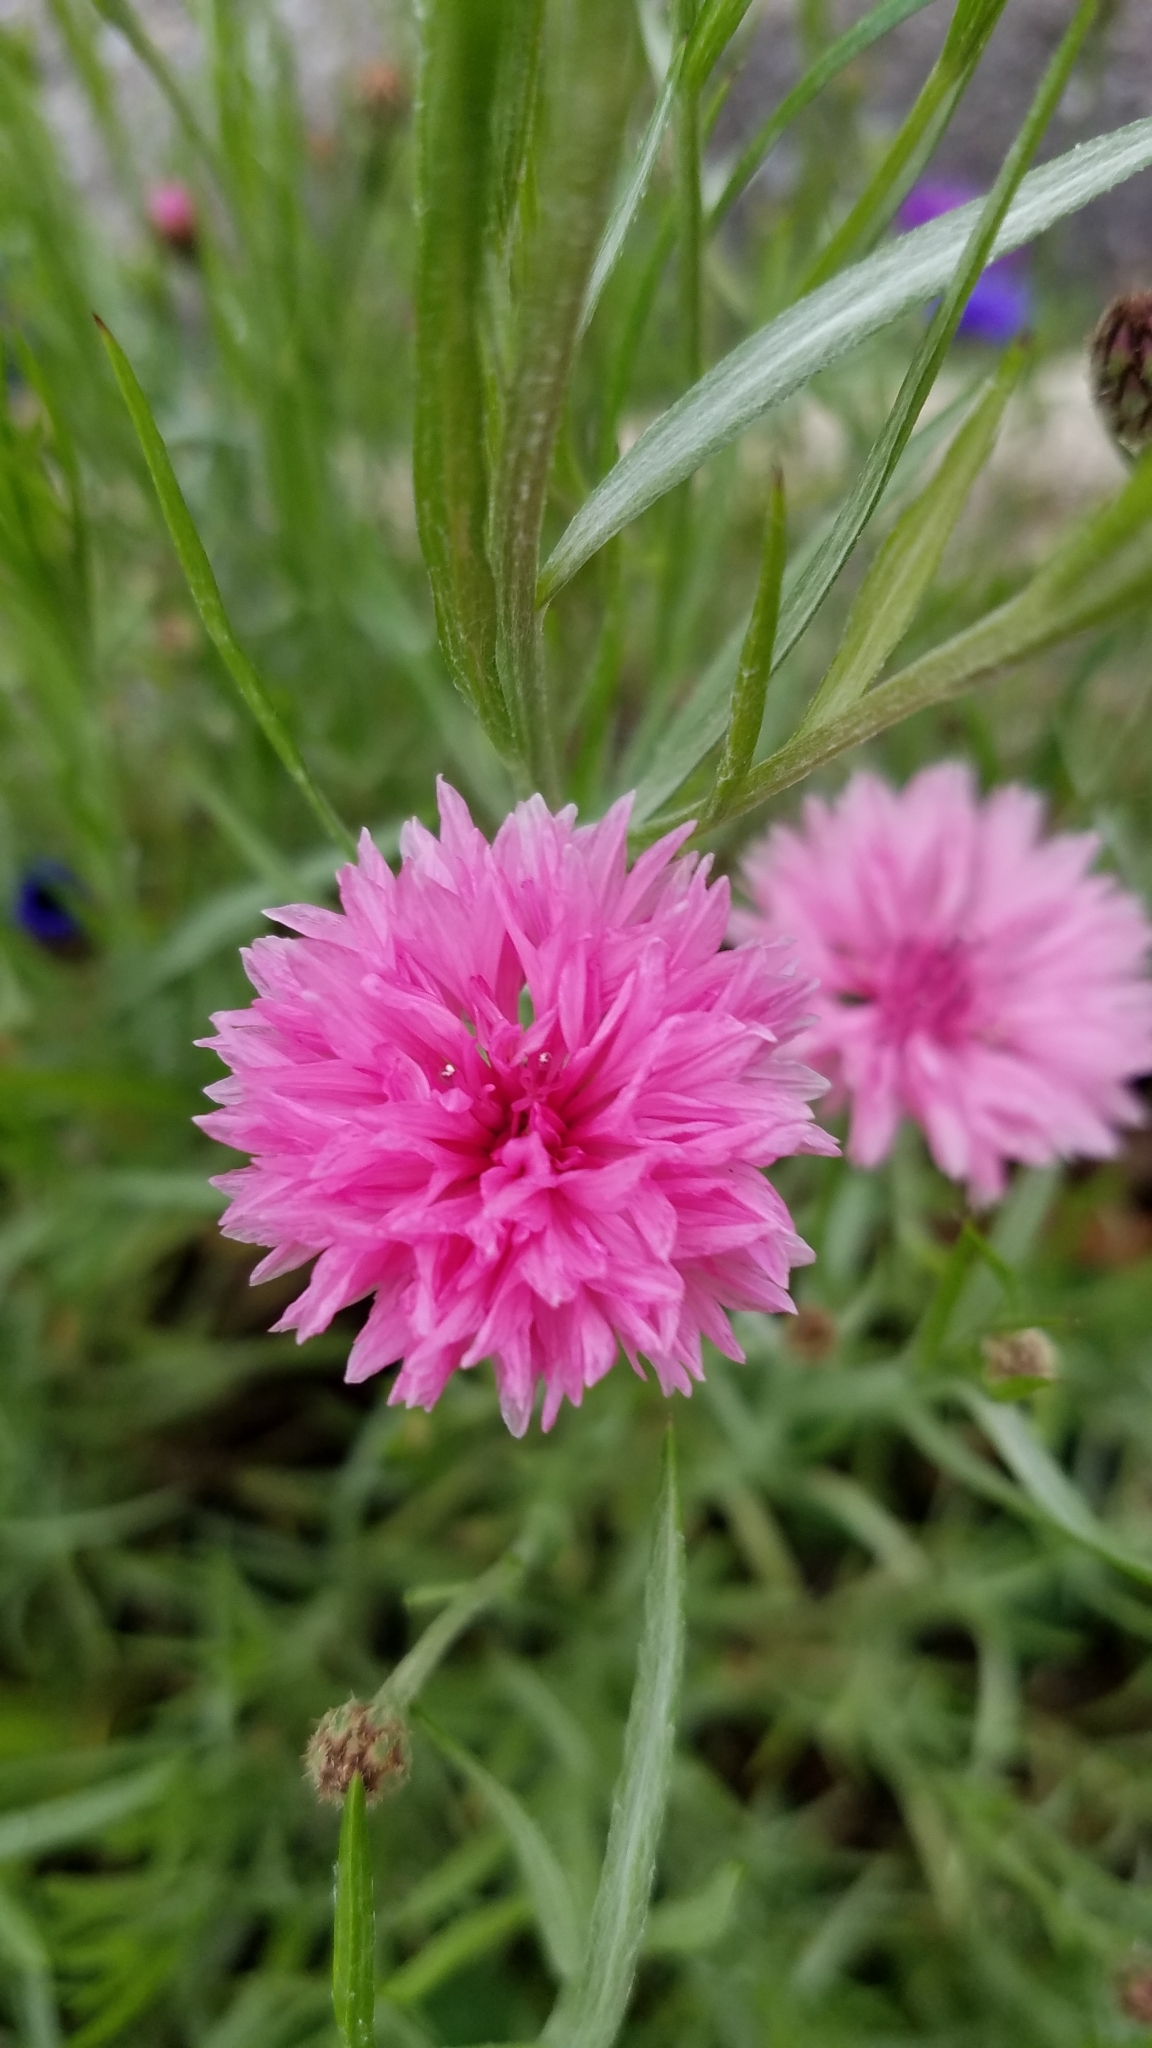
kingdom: Plantae
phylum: Tracheophyta
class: Magnoliopsida
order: Asterales
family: Asteraceae
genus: Centaurea
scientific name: Centaurea cyanus
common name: Cornflower
